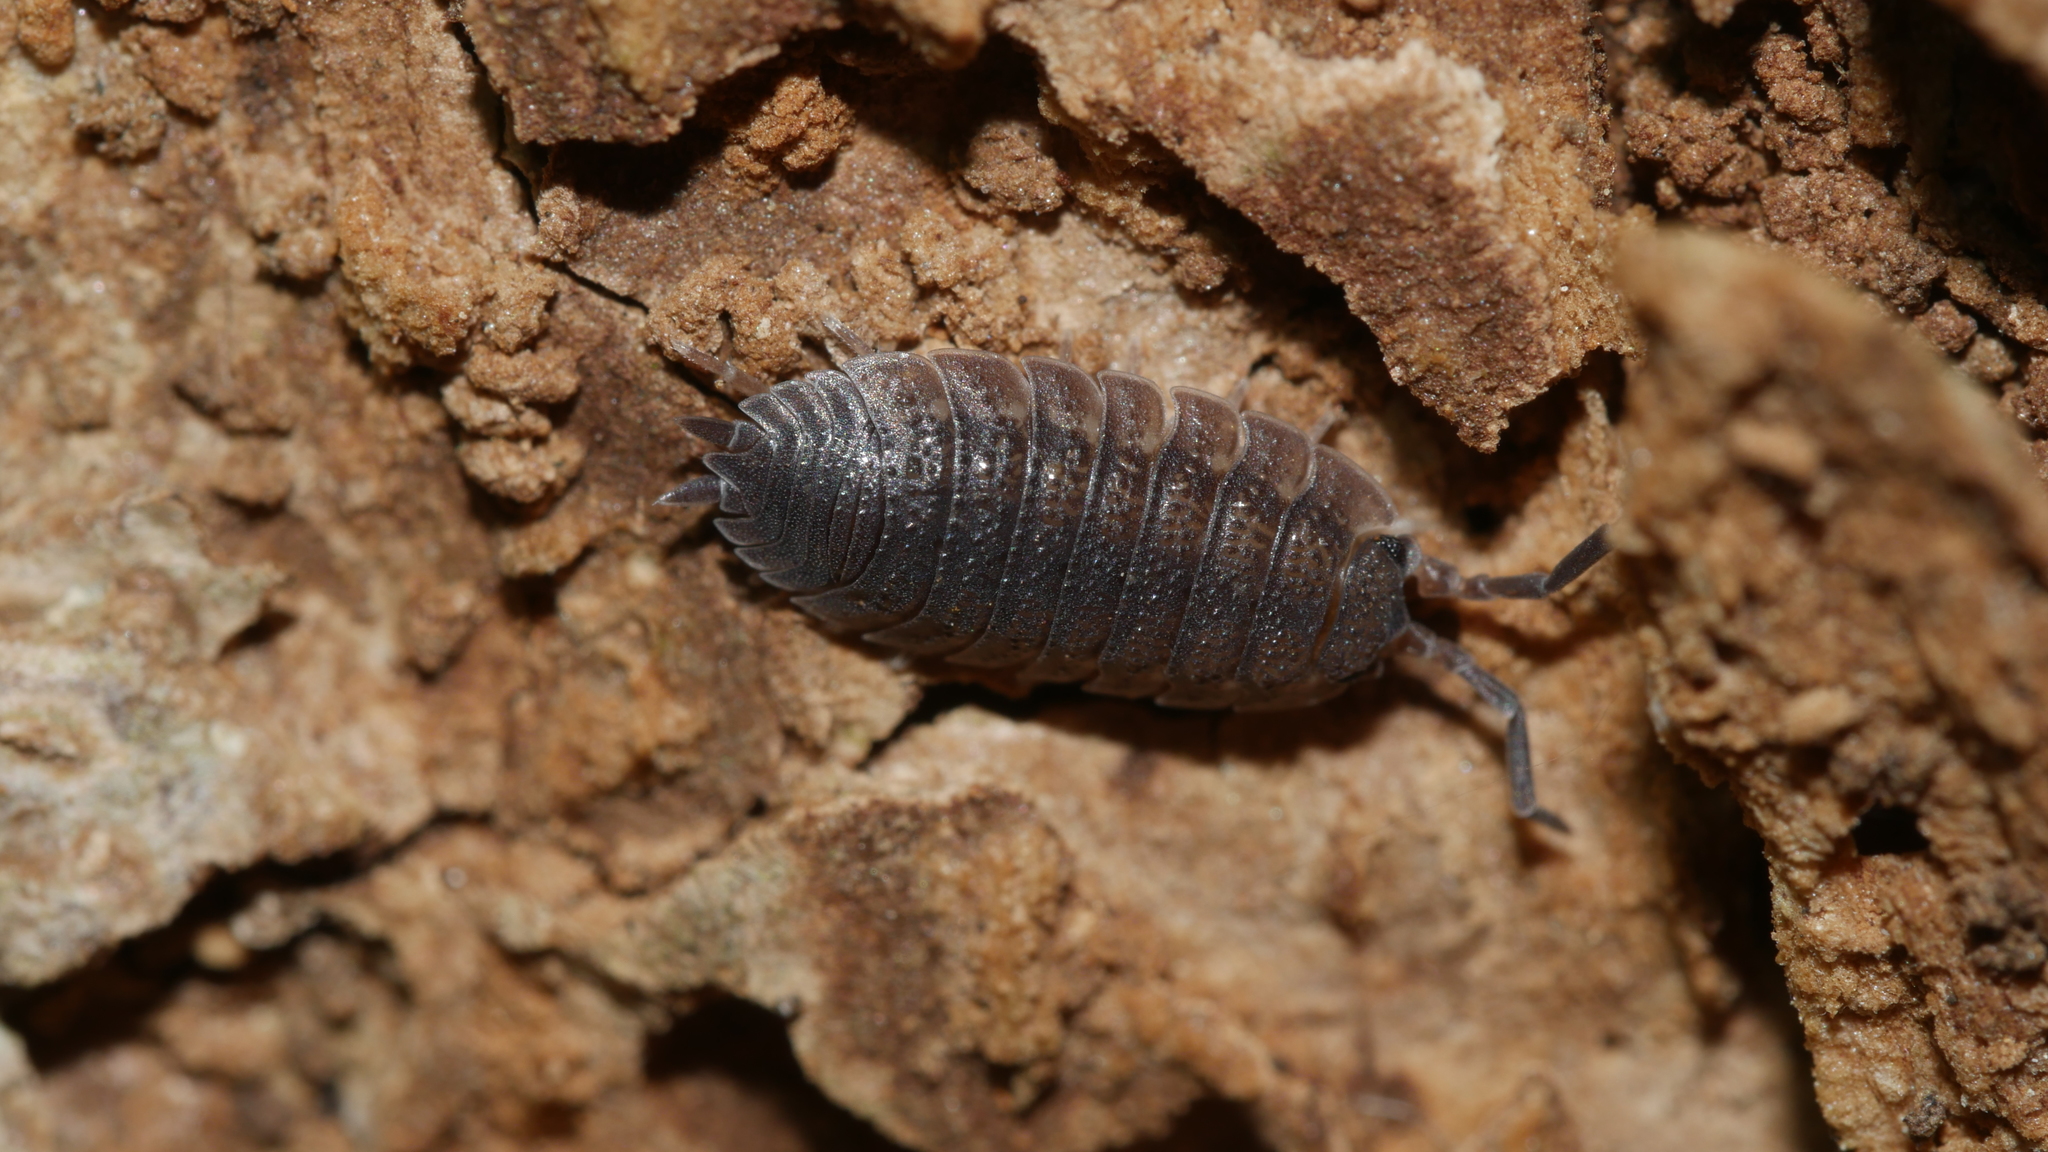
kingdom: Animalia
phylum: Arthropoda
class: Malacostraca
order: Isopoda
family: Porcellionidae
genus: Porcellio
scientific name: Porcellio scaber
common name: Common rough woodlouse
